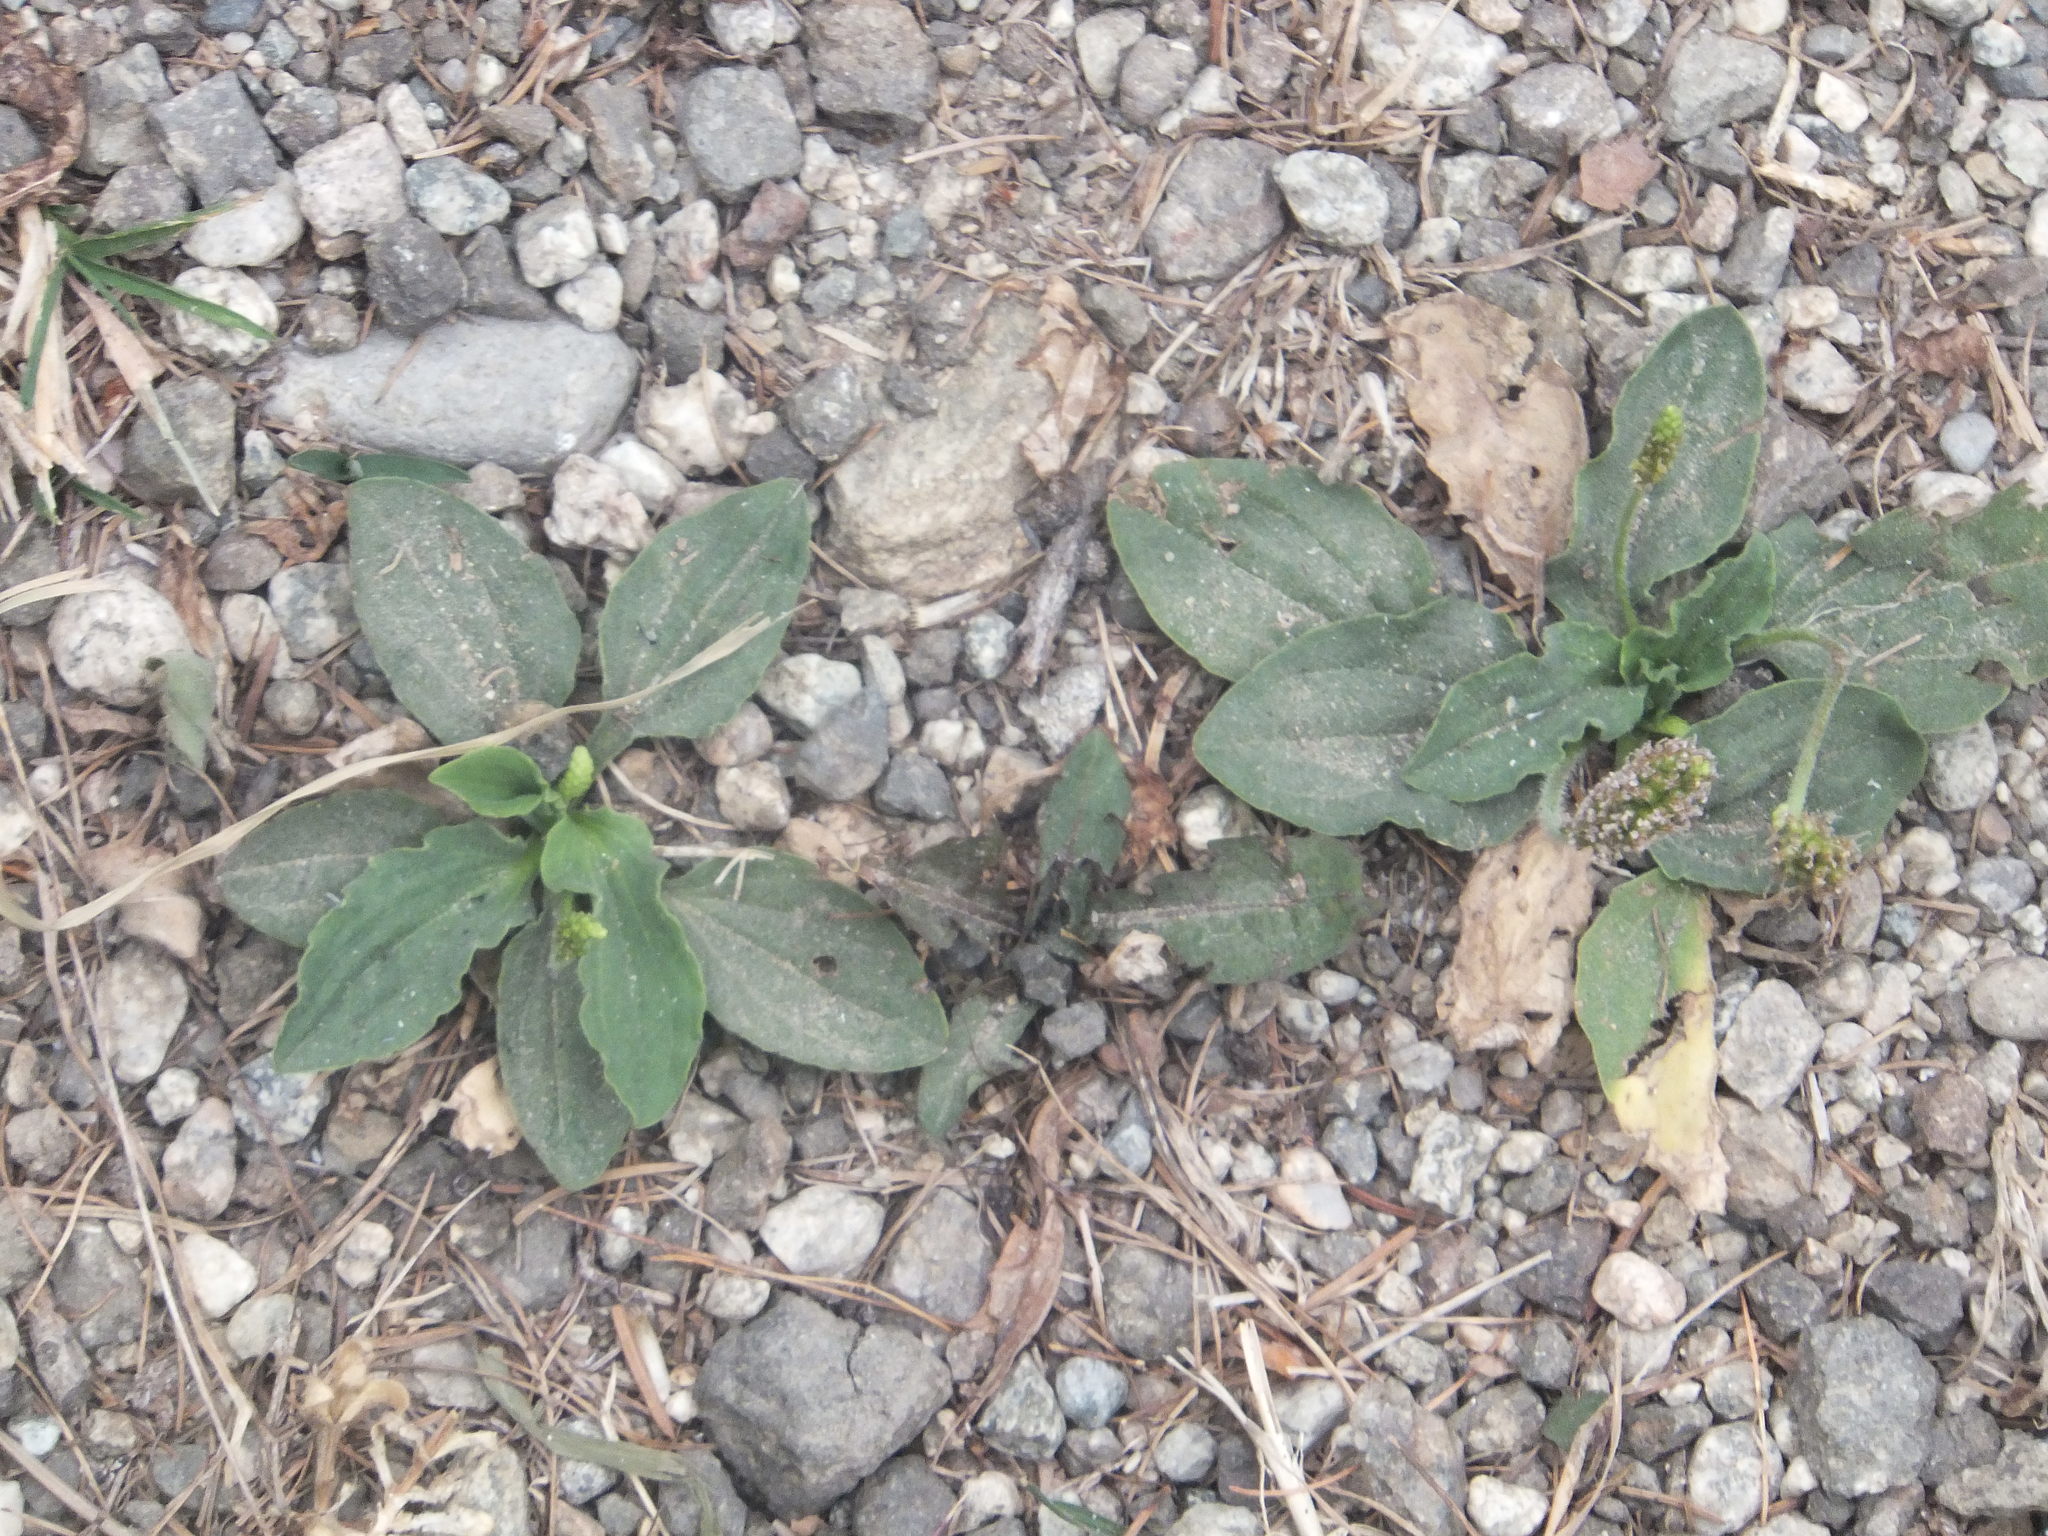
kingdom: Plantae
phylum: Tracheophyta
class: Magnoliopsida
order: Lamiales
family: Plantaginaceae
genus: Plantago
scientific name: Plantago major
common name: Common plantain
